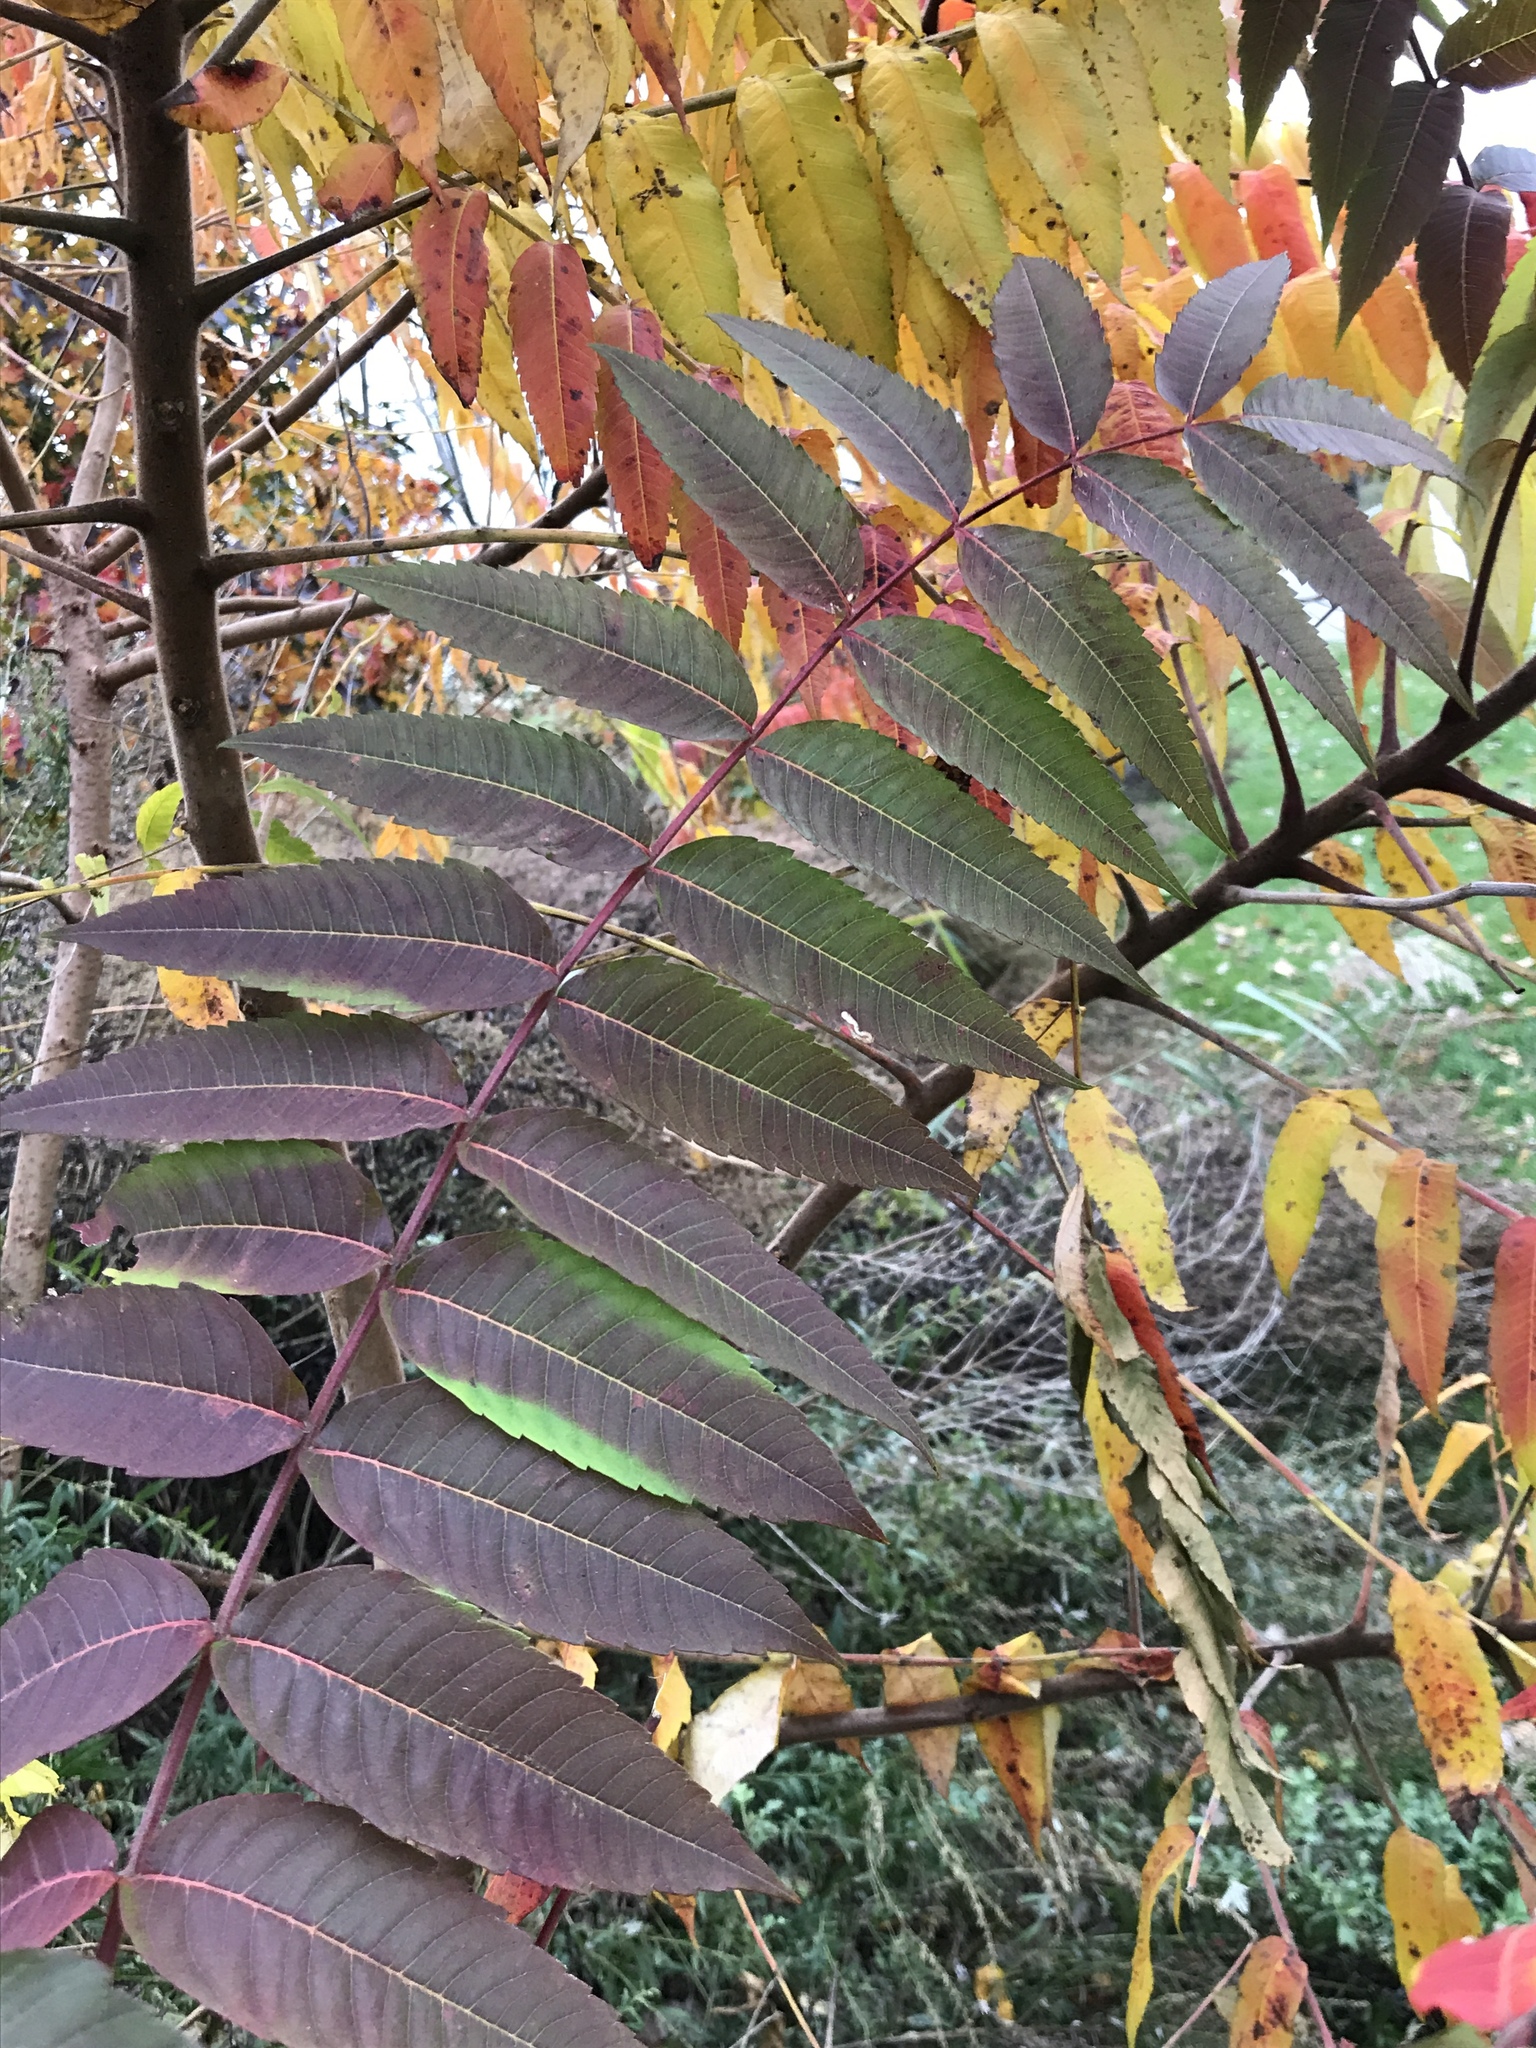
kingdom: Plantae
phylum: Tracheophyta
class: Magnoliopsida
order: Sapindales
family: Anacardiaceae
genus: Rhus
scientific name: Rhus typhina
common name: Staghorn sumac
